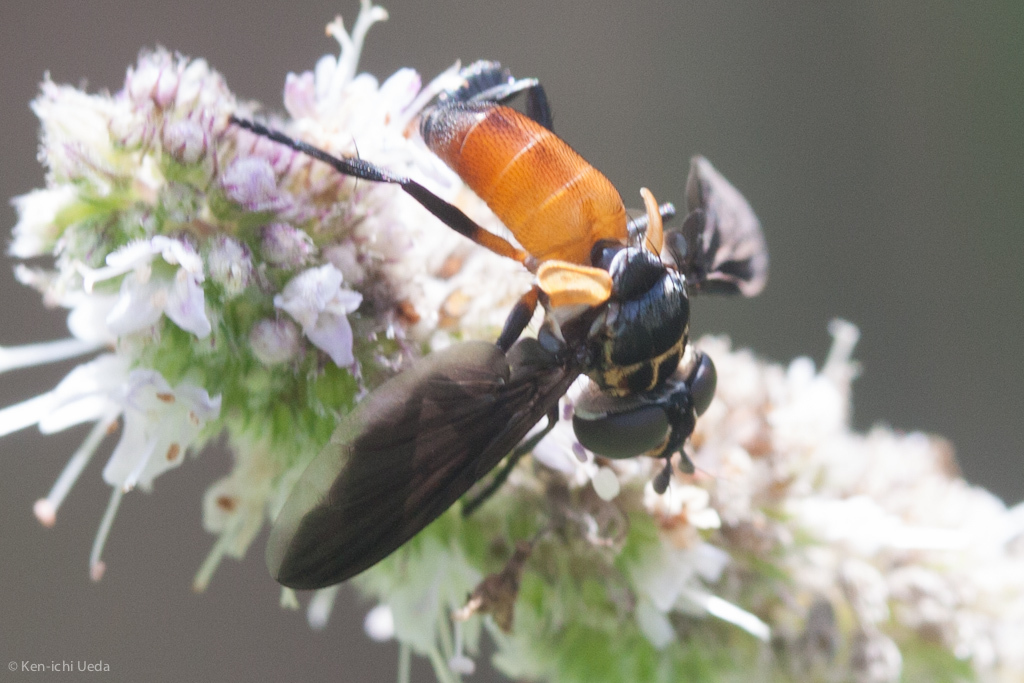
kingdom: Animalia
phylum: Arthropoda
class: Insecta
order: Diptera
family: Tachinidae
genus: Trichopoda
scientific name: Trichopoda pennipes
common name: Tachinid fly
